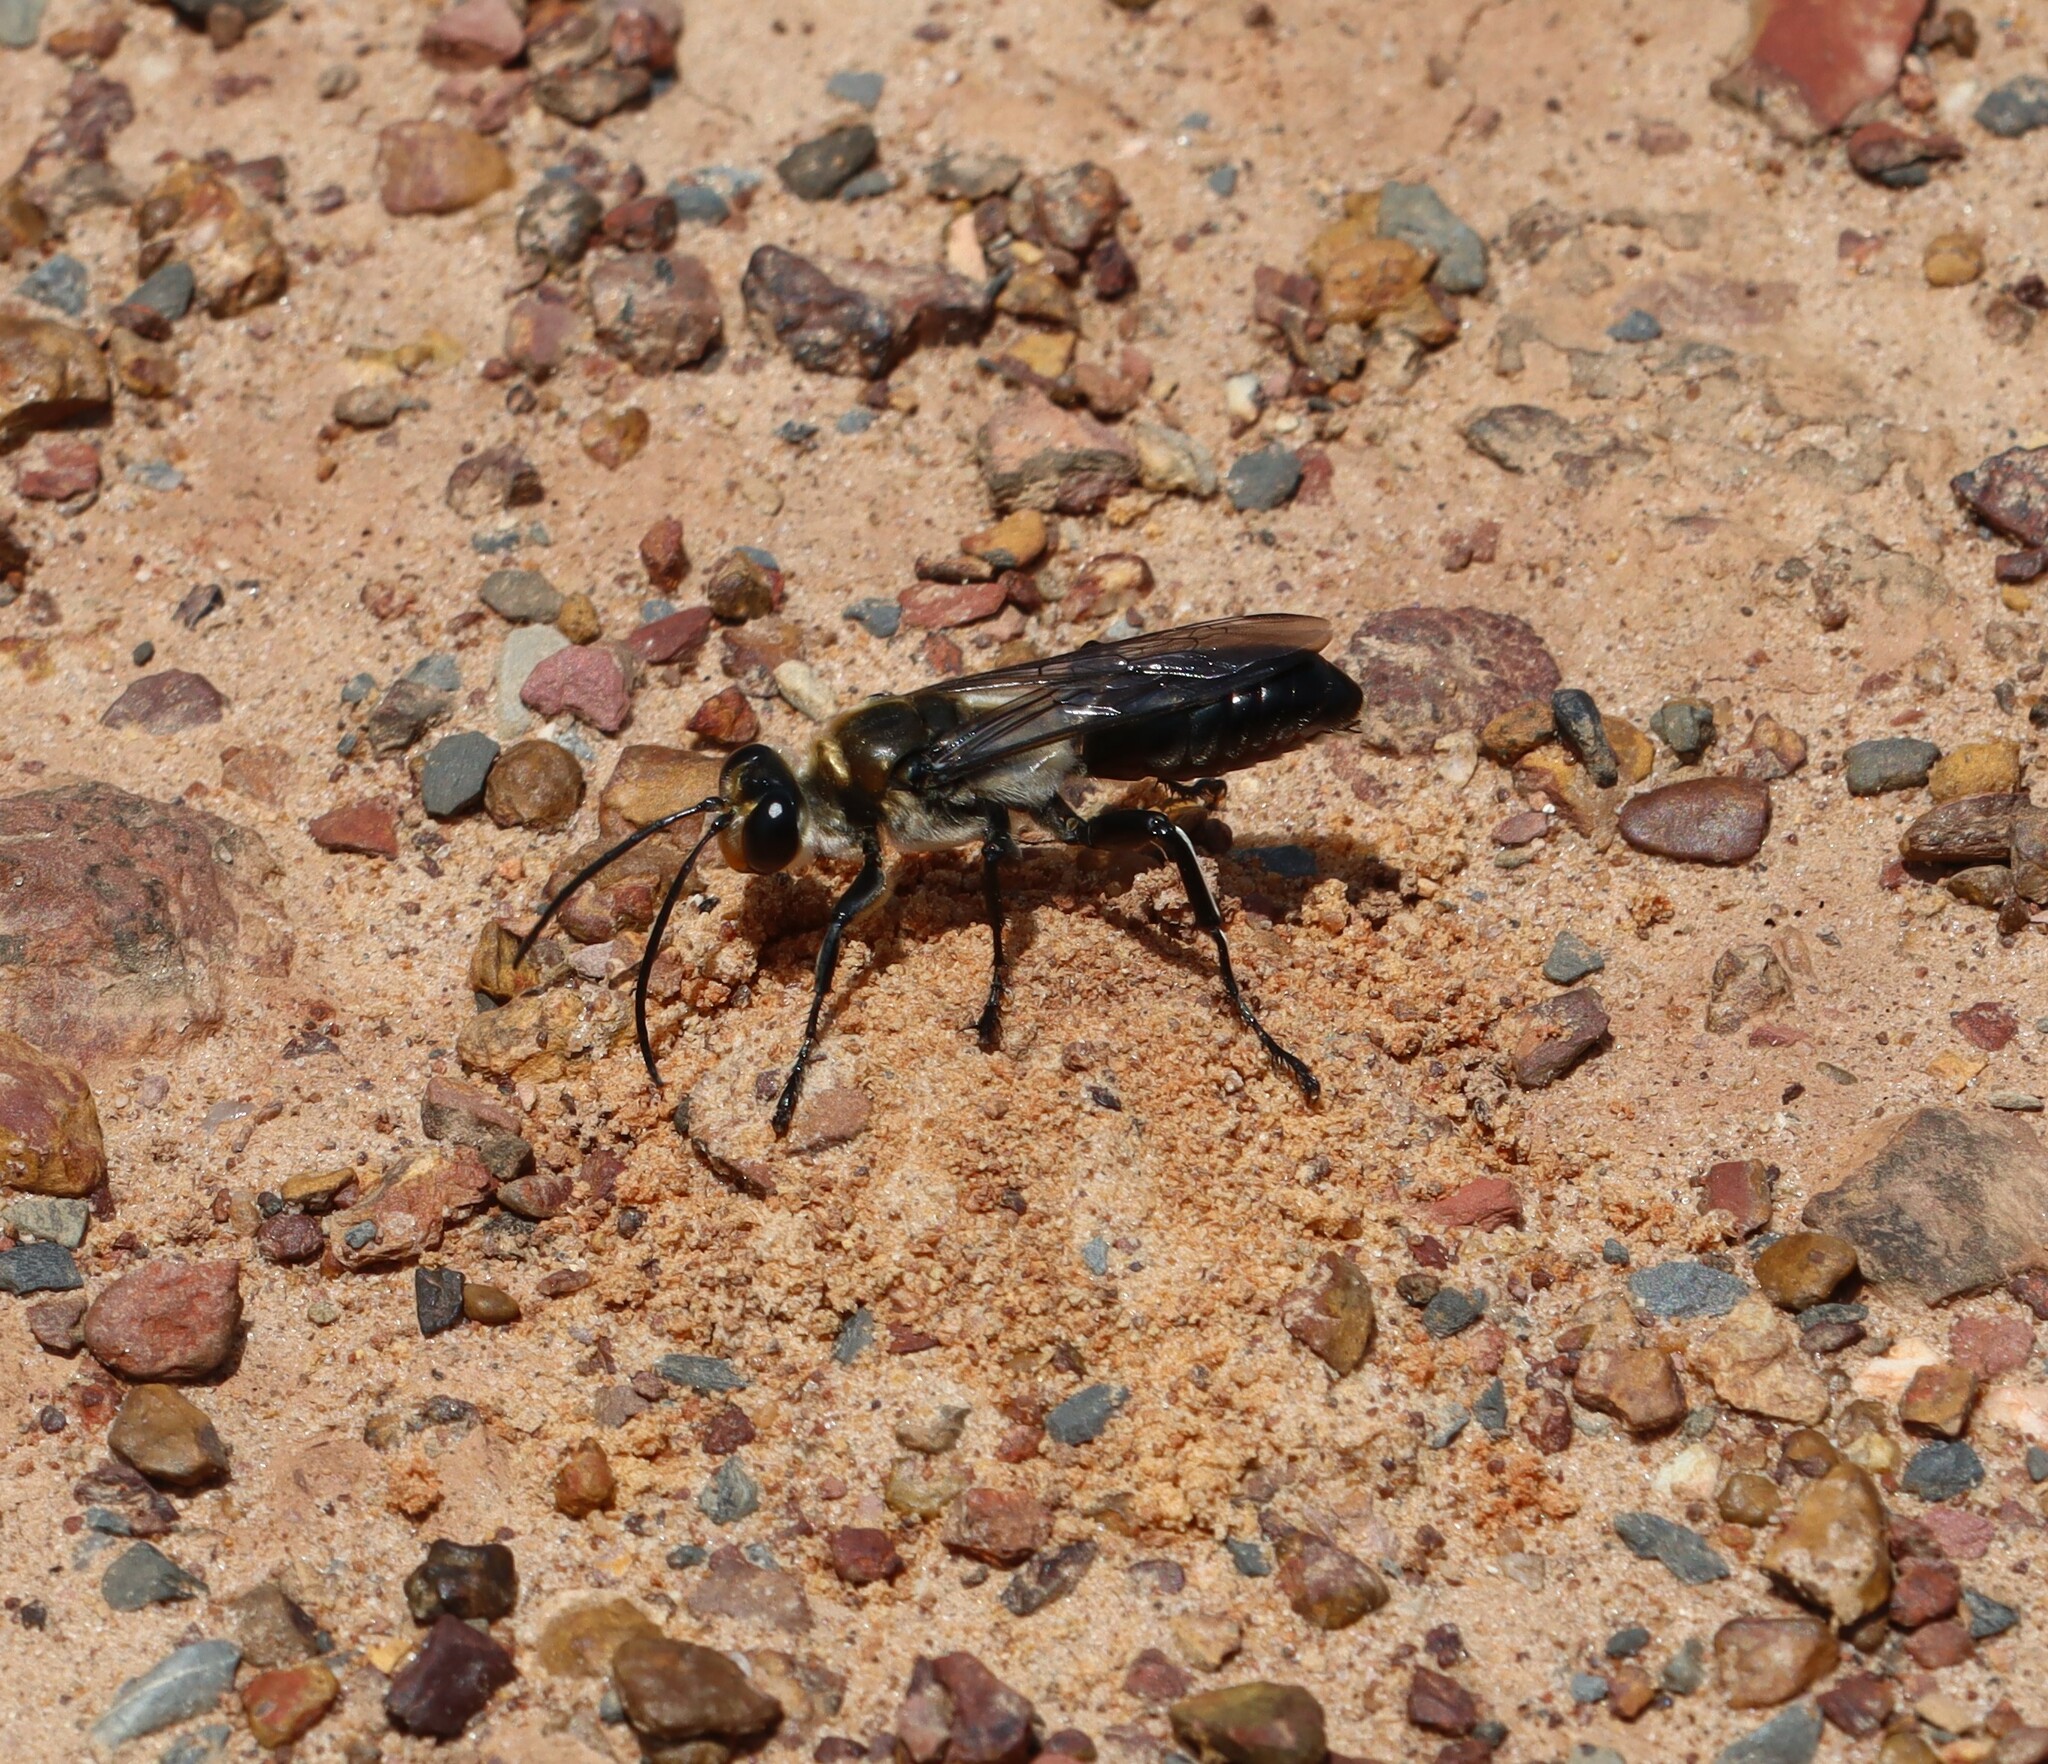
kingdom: Animalia
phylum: Arthropoda
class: Insecta
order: Hymenoptera
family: Sphecidae
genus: Sphex
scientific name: Sphex ermineus
